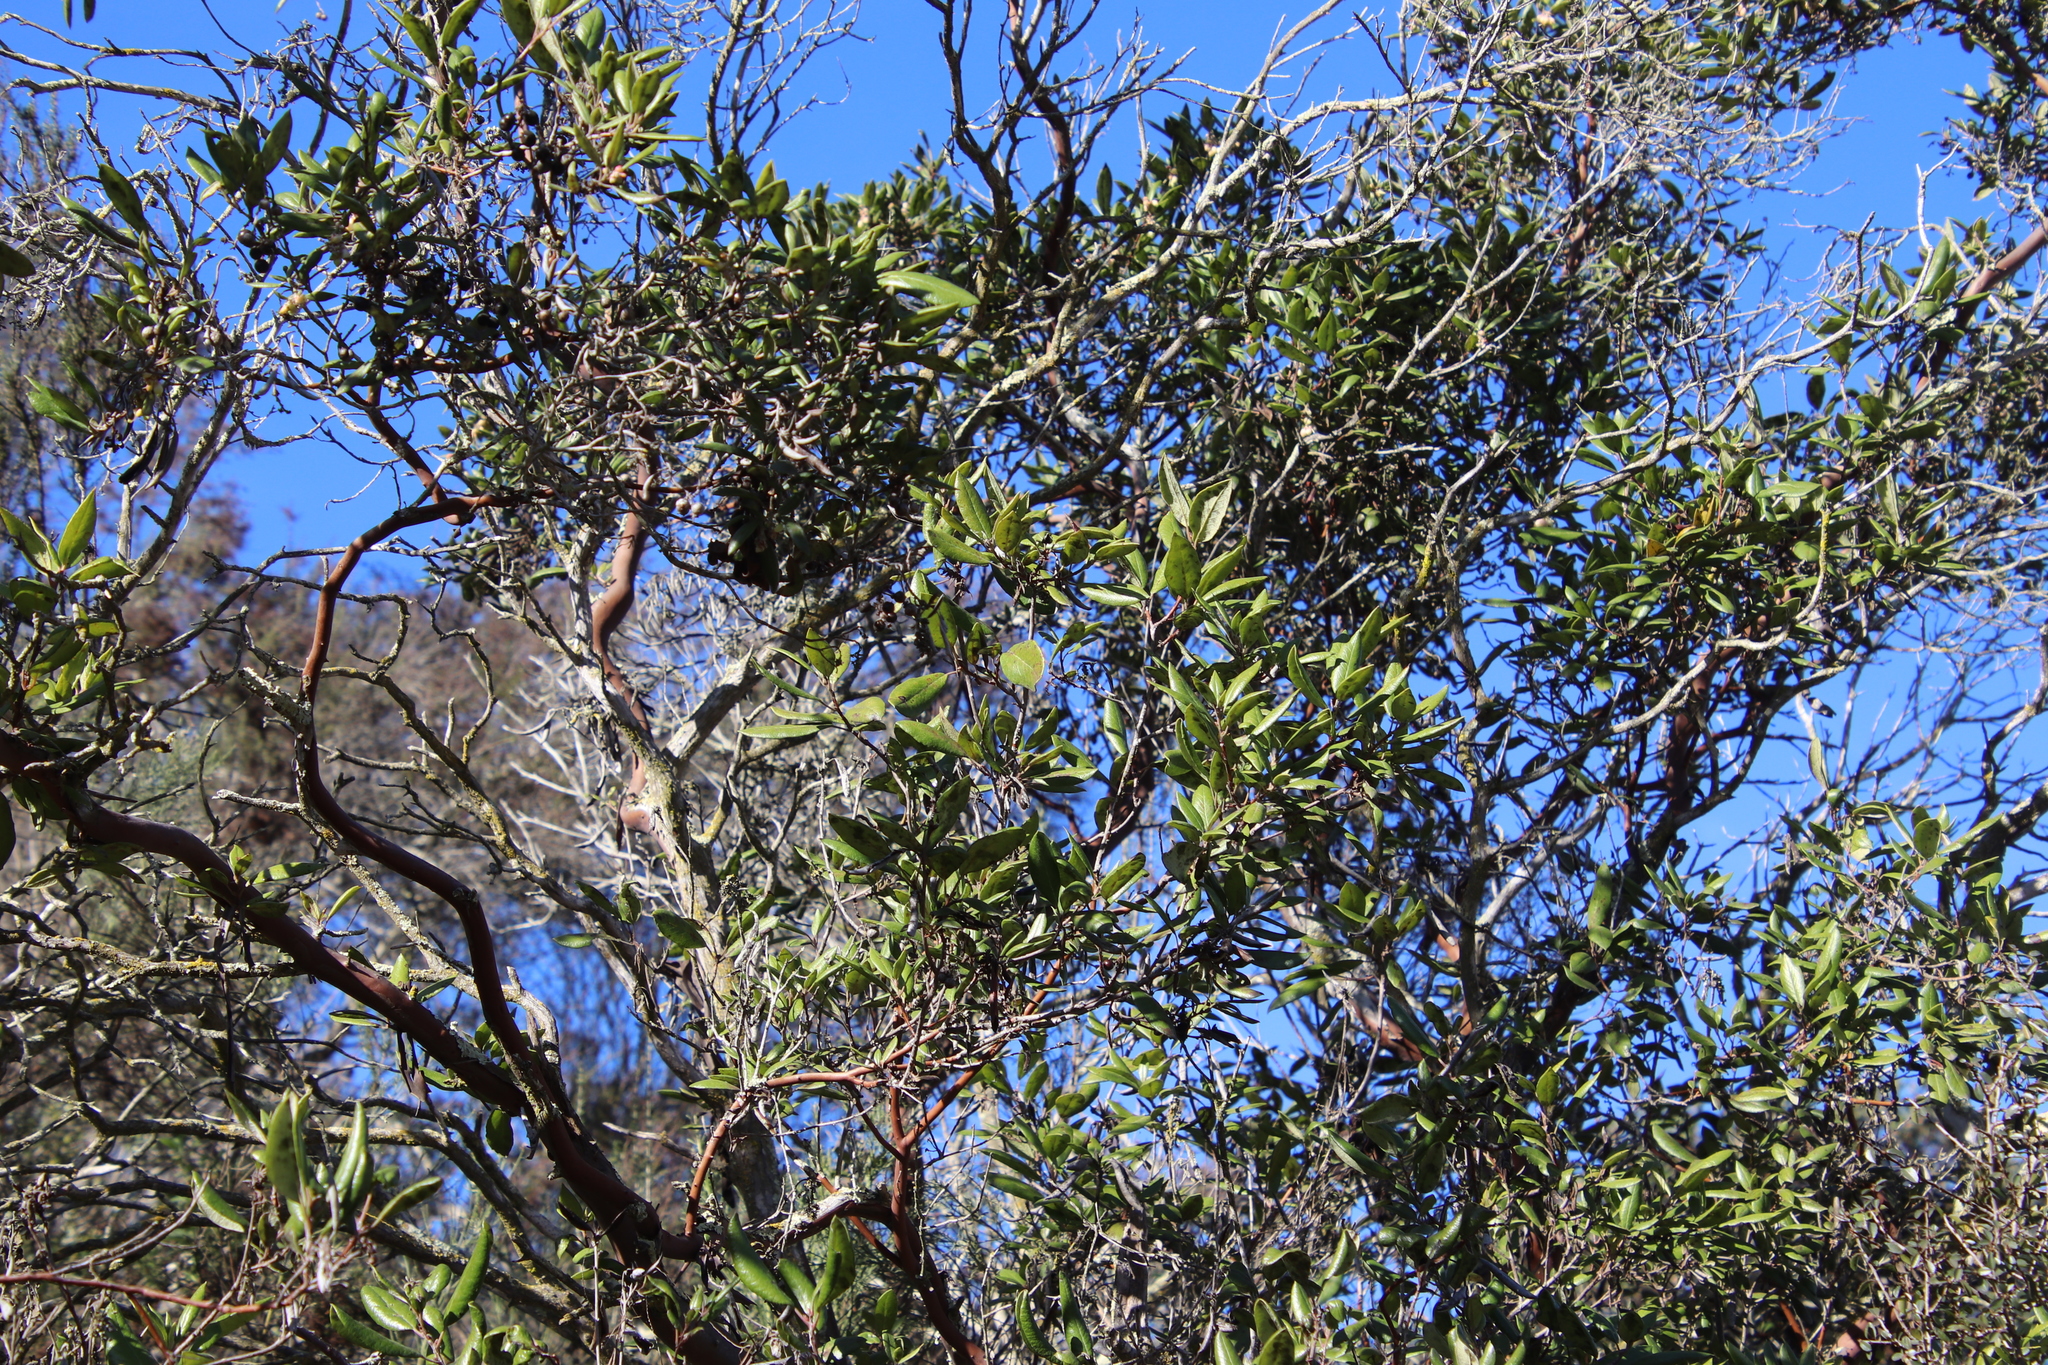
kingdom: Plantae
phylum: Tracheophyta
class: Magnoliopsida
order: Ericales
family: Ericaceae
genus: Arctostaphylos
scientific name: Arctostaphylos bicolor
